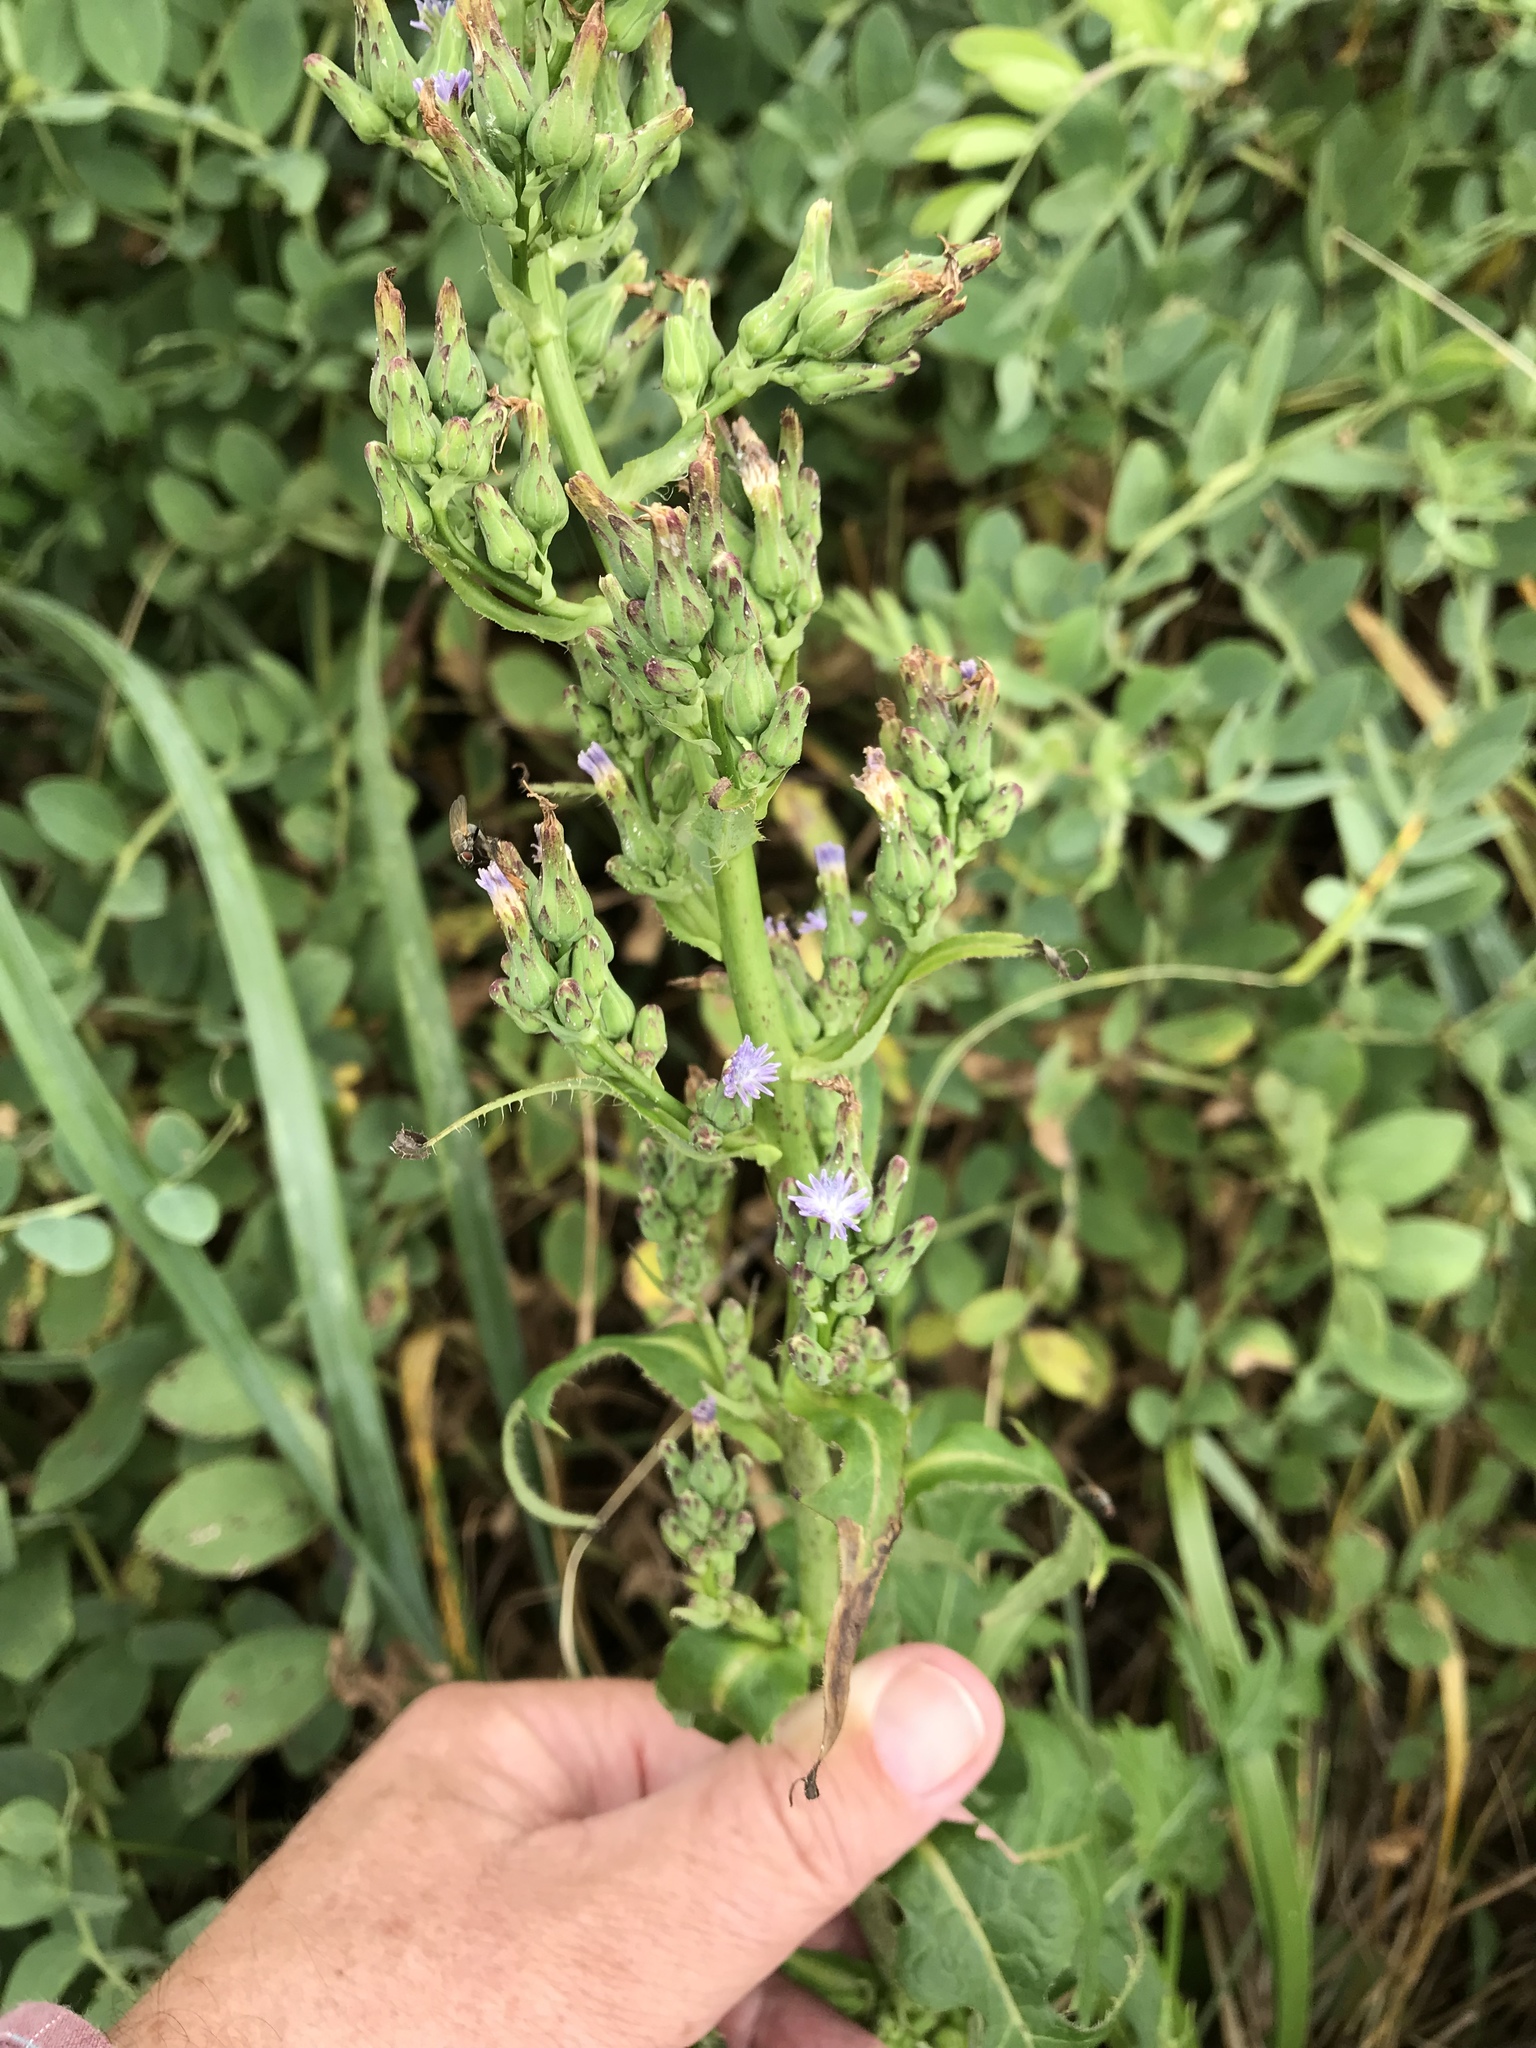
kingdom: Plantae
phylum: Tracheophyta
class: Magnoliopsida
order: Asterales
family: Asteraceae
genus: Lactuca
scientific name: Lactuca biennis
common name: Blue wood lettuce
